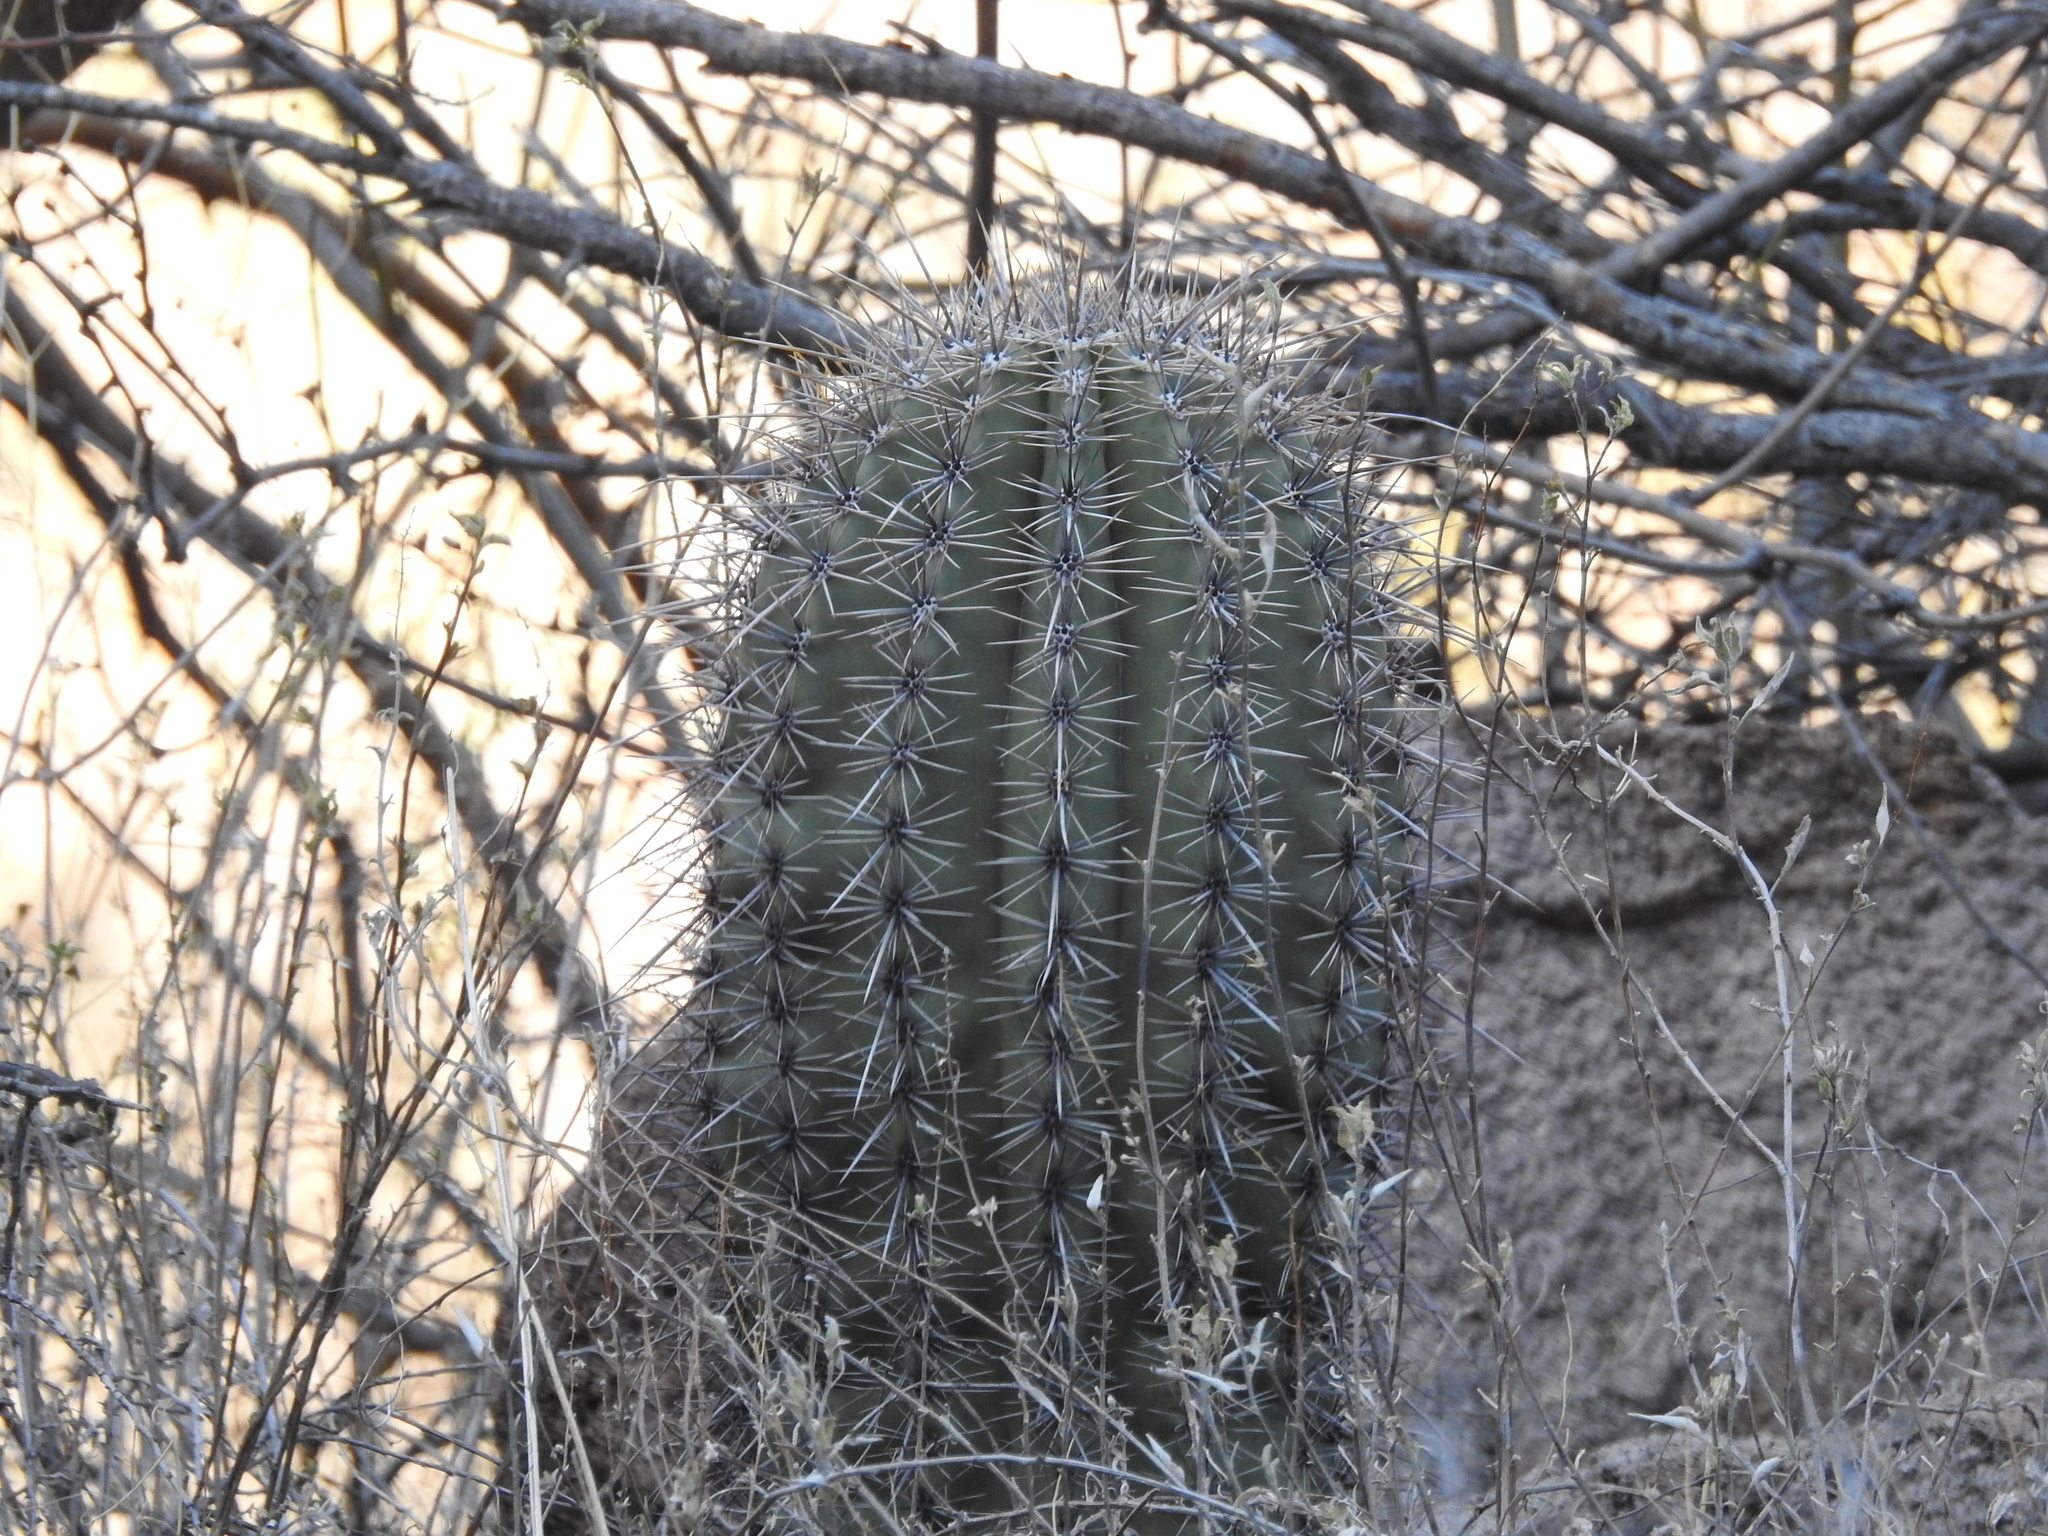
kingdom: Plantae
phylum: Tracheophyta
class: Magnoliopsida
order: Caryophyllales
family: Cactaceae
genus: Carnegiea
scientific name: Carnegiea gigantea
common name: Saguaro
